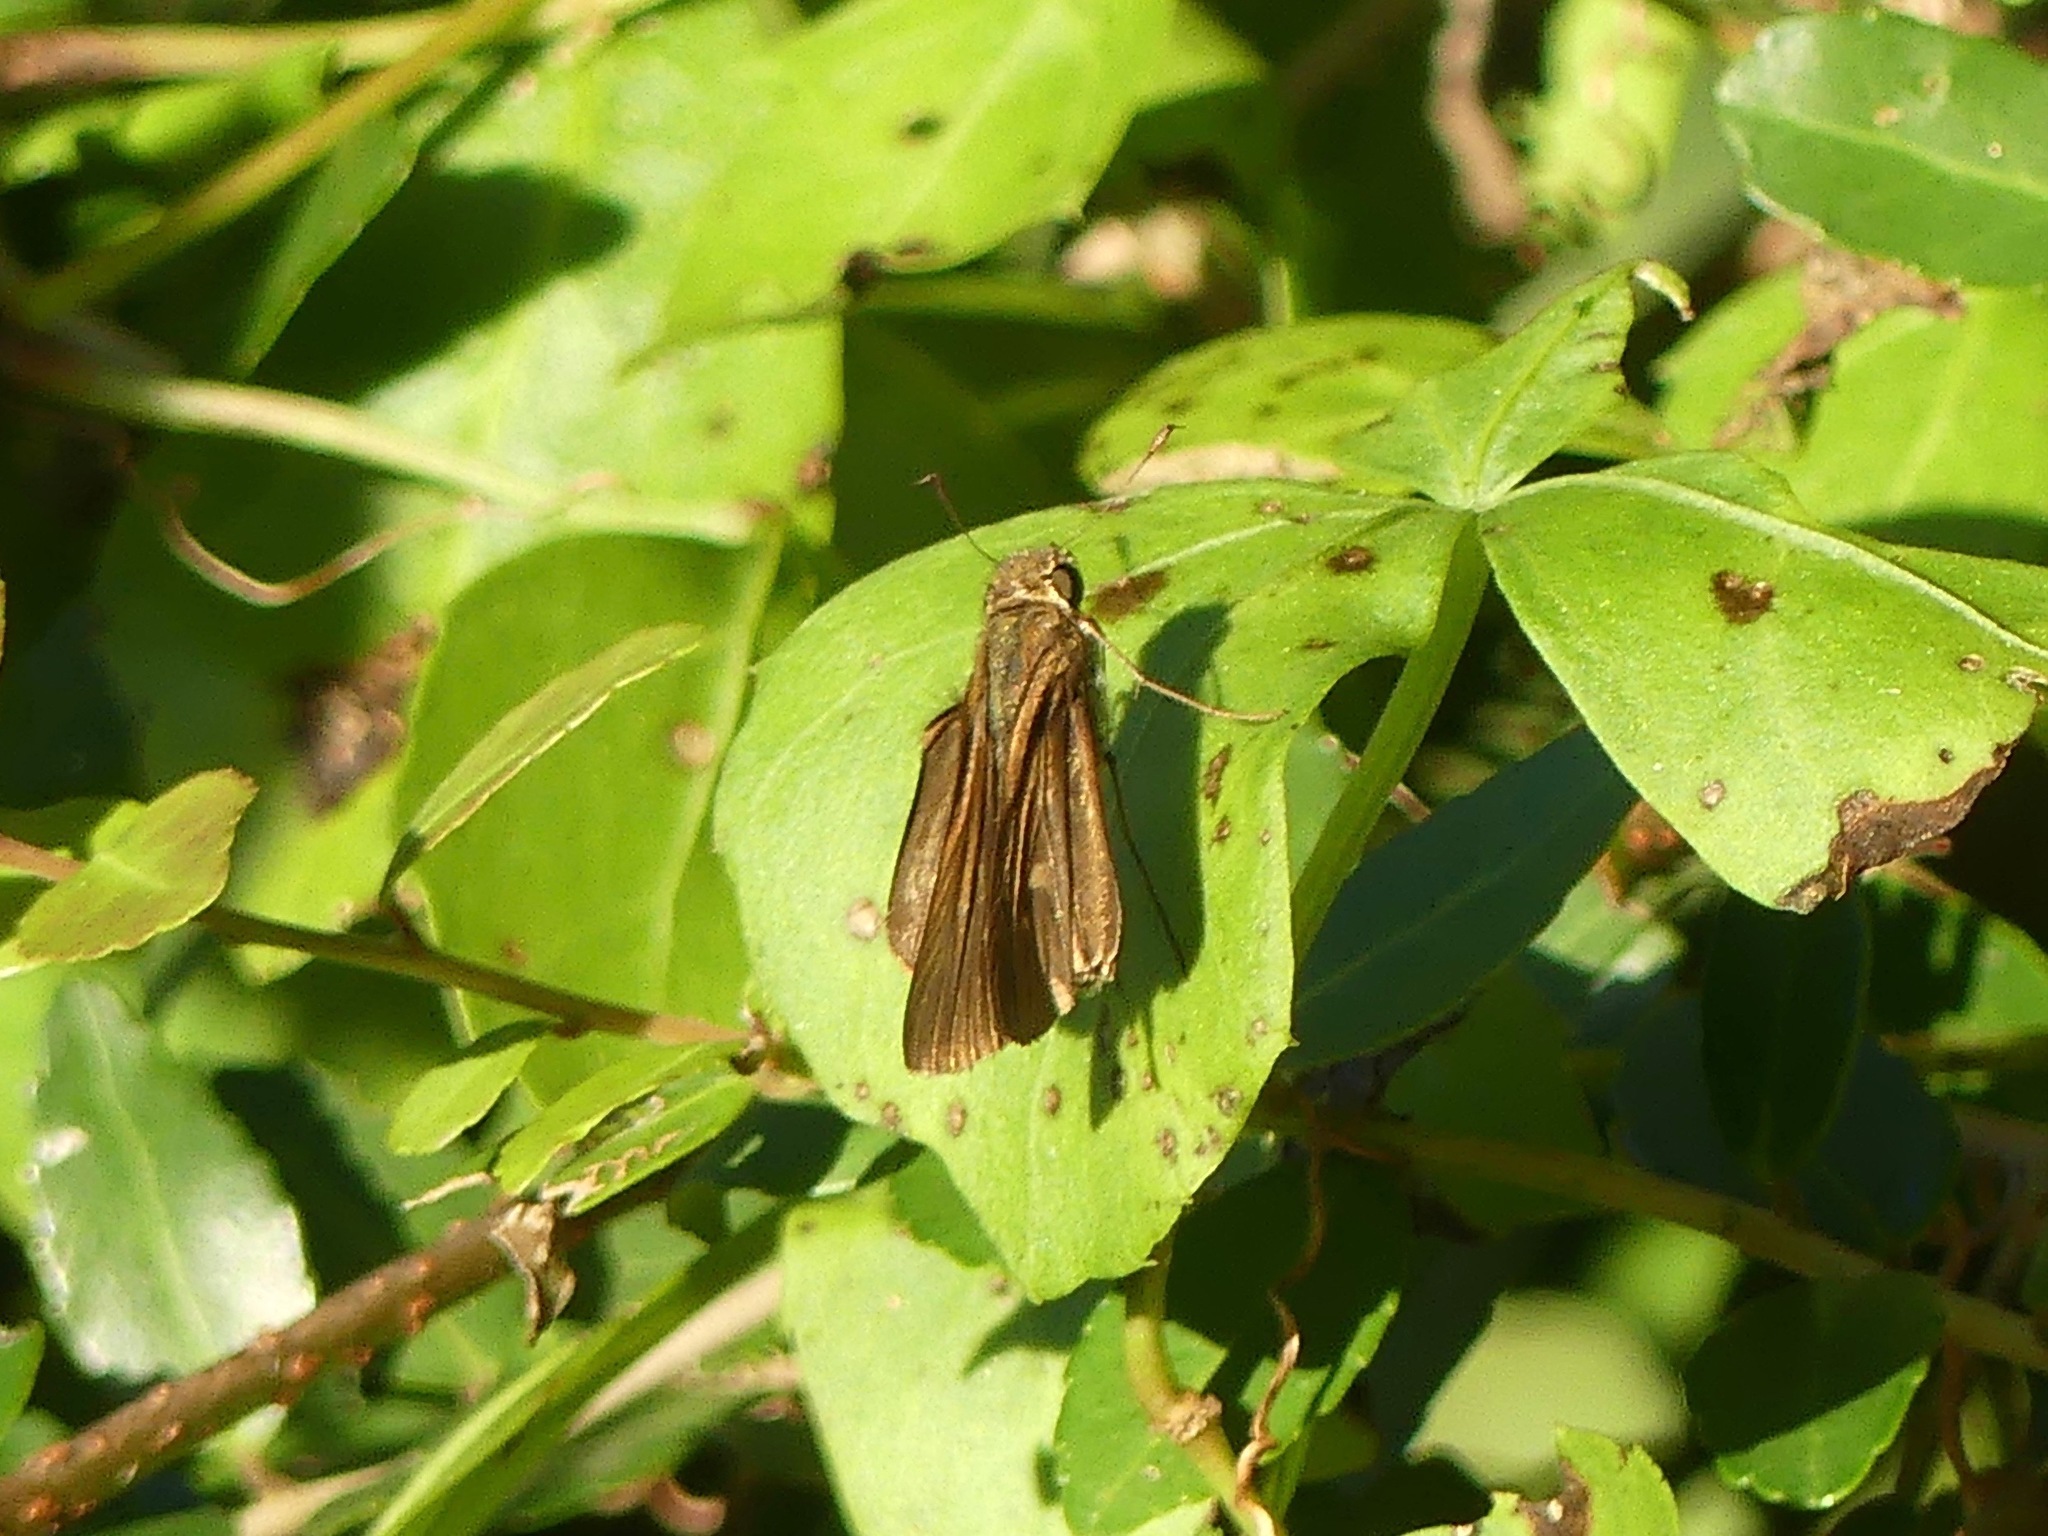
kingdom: Animalia
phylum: Arthropoda
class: Insecta
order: Lepidoptera
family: Hesperiidae
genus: Panoquina
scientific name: Panoquina ocola
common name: Ocola skipper
